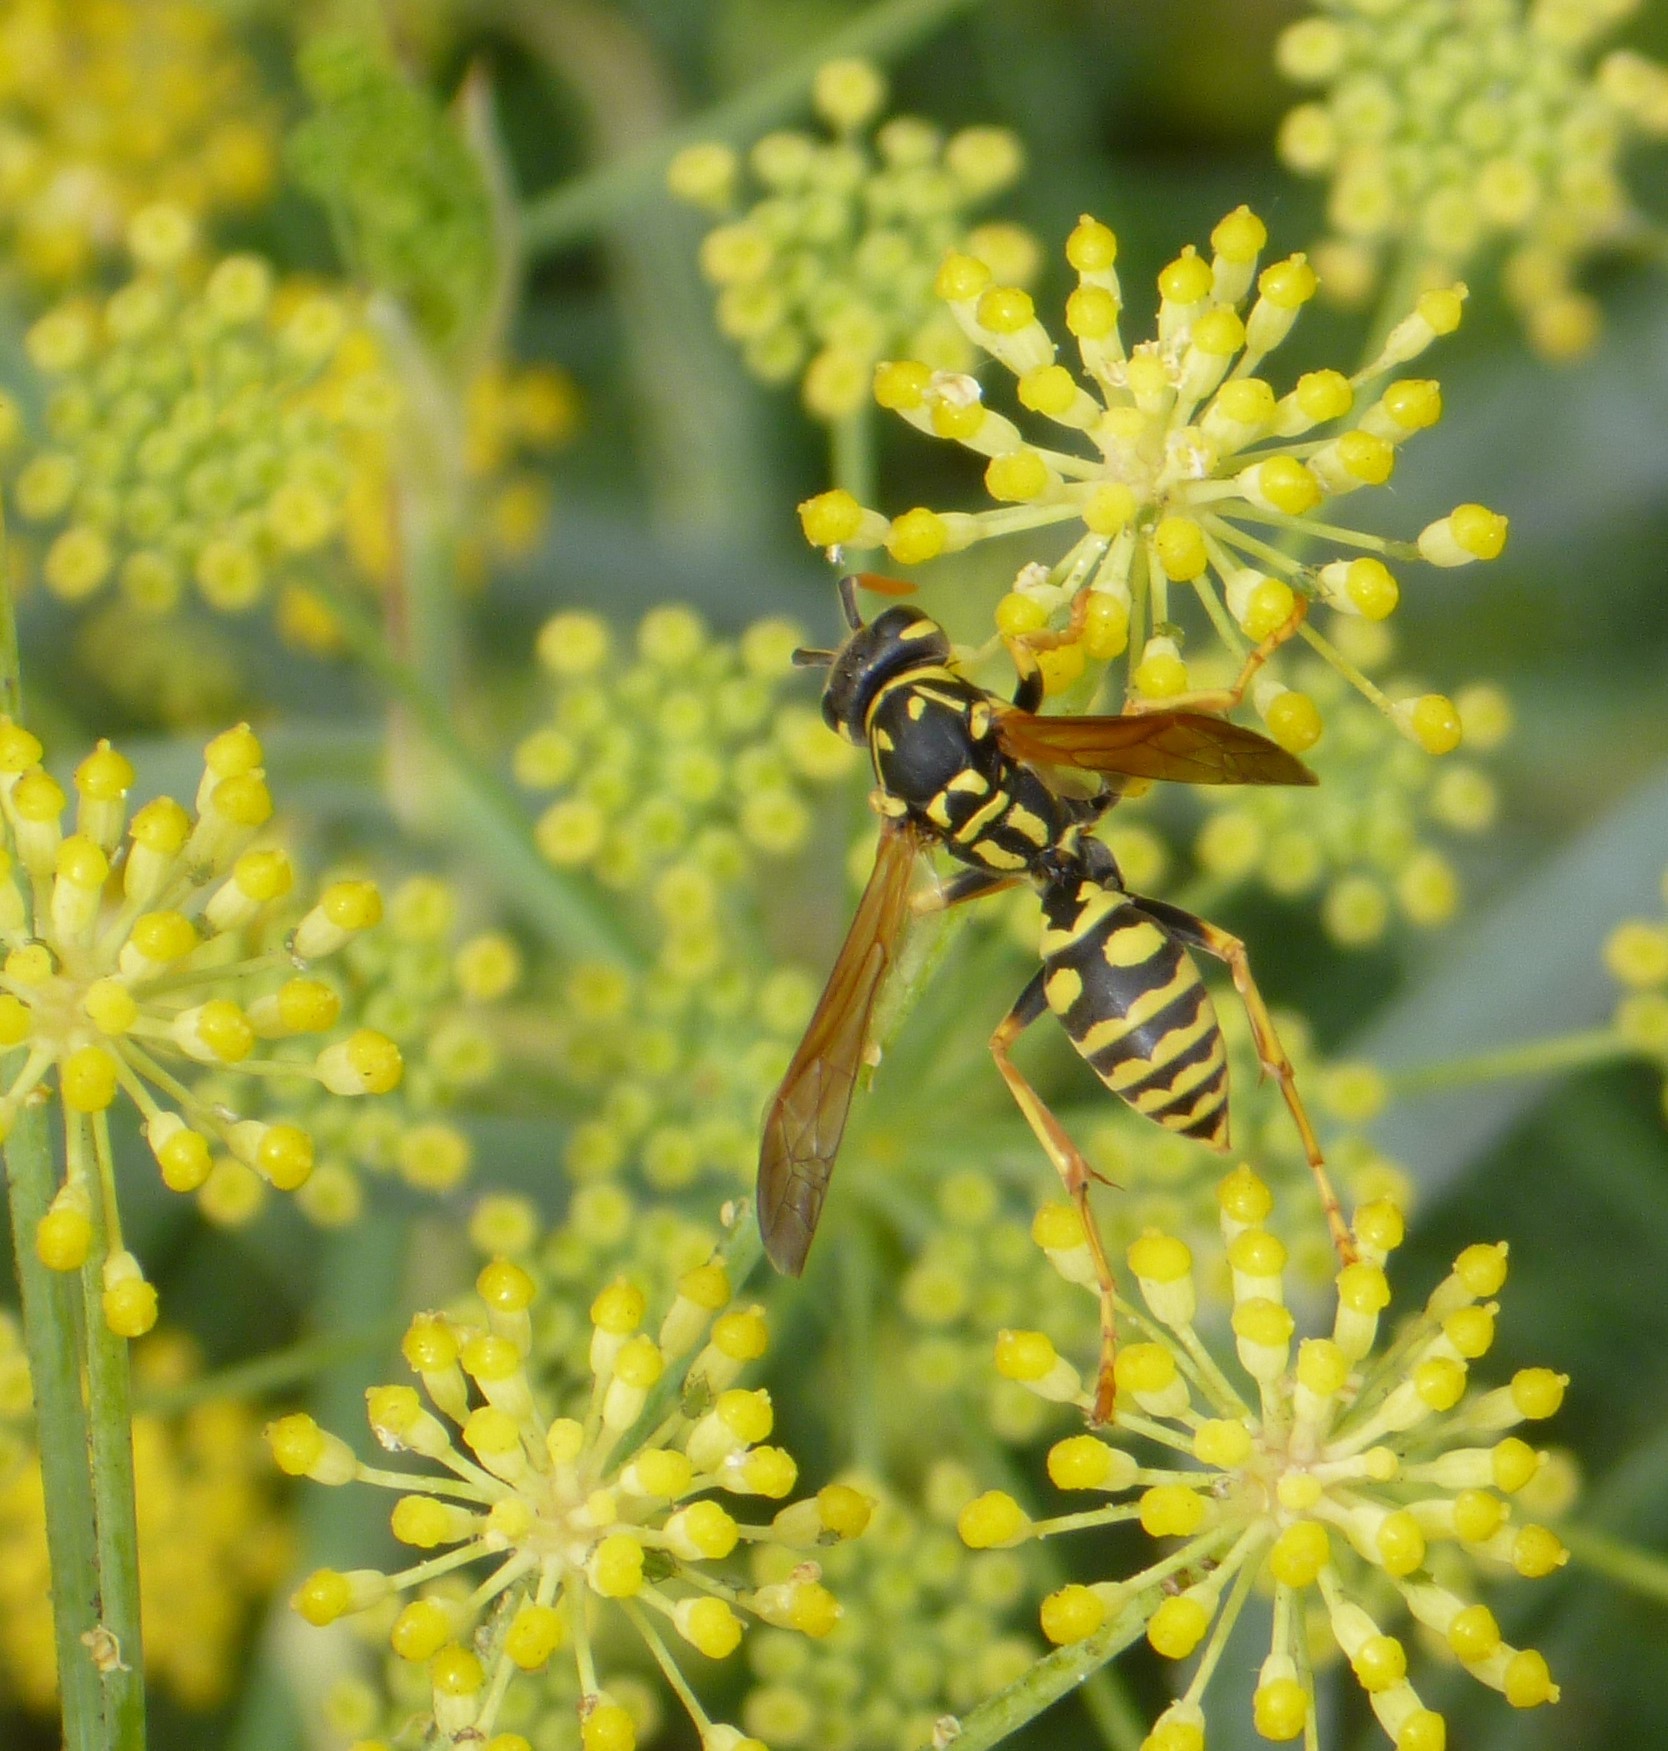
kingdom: Animalia
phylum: Arthropoda
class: Insecta
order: Hymenoptera
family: Eumenidae
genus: Polistes
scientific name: Polistes dominula
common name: Paper wasp
